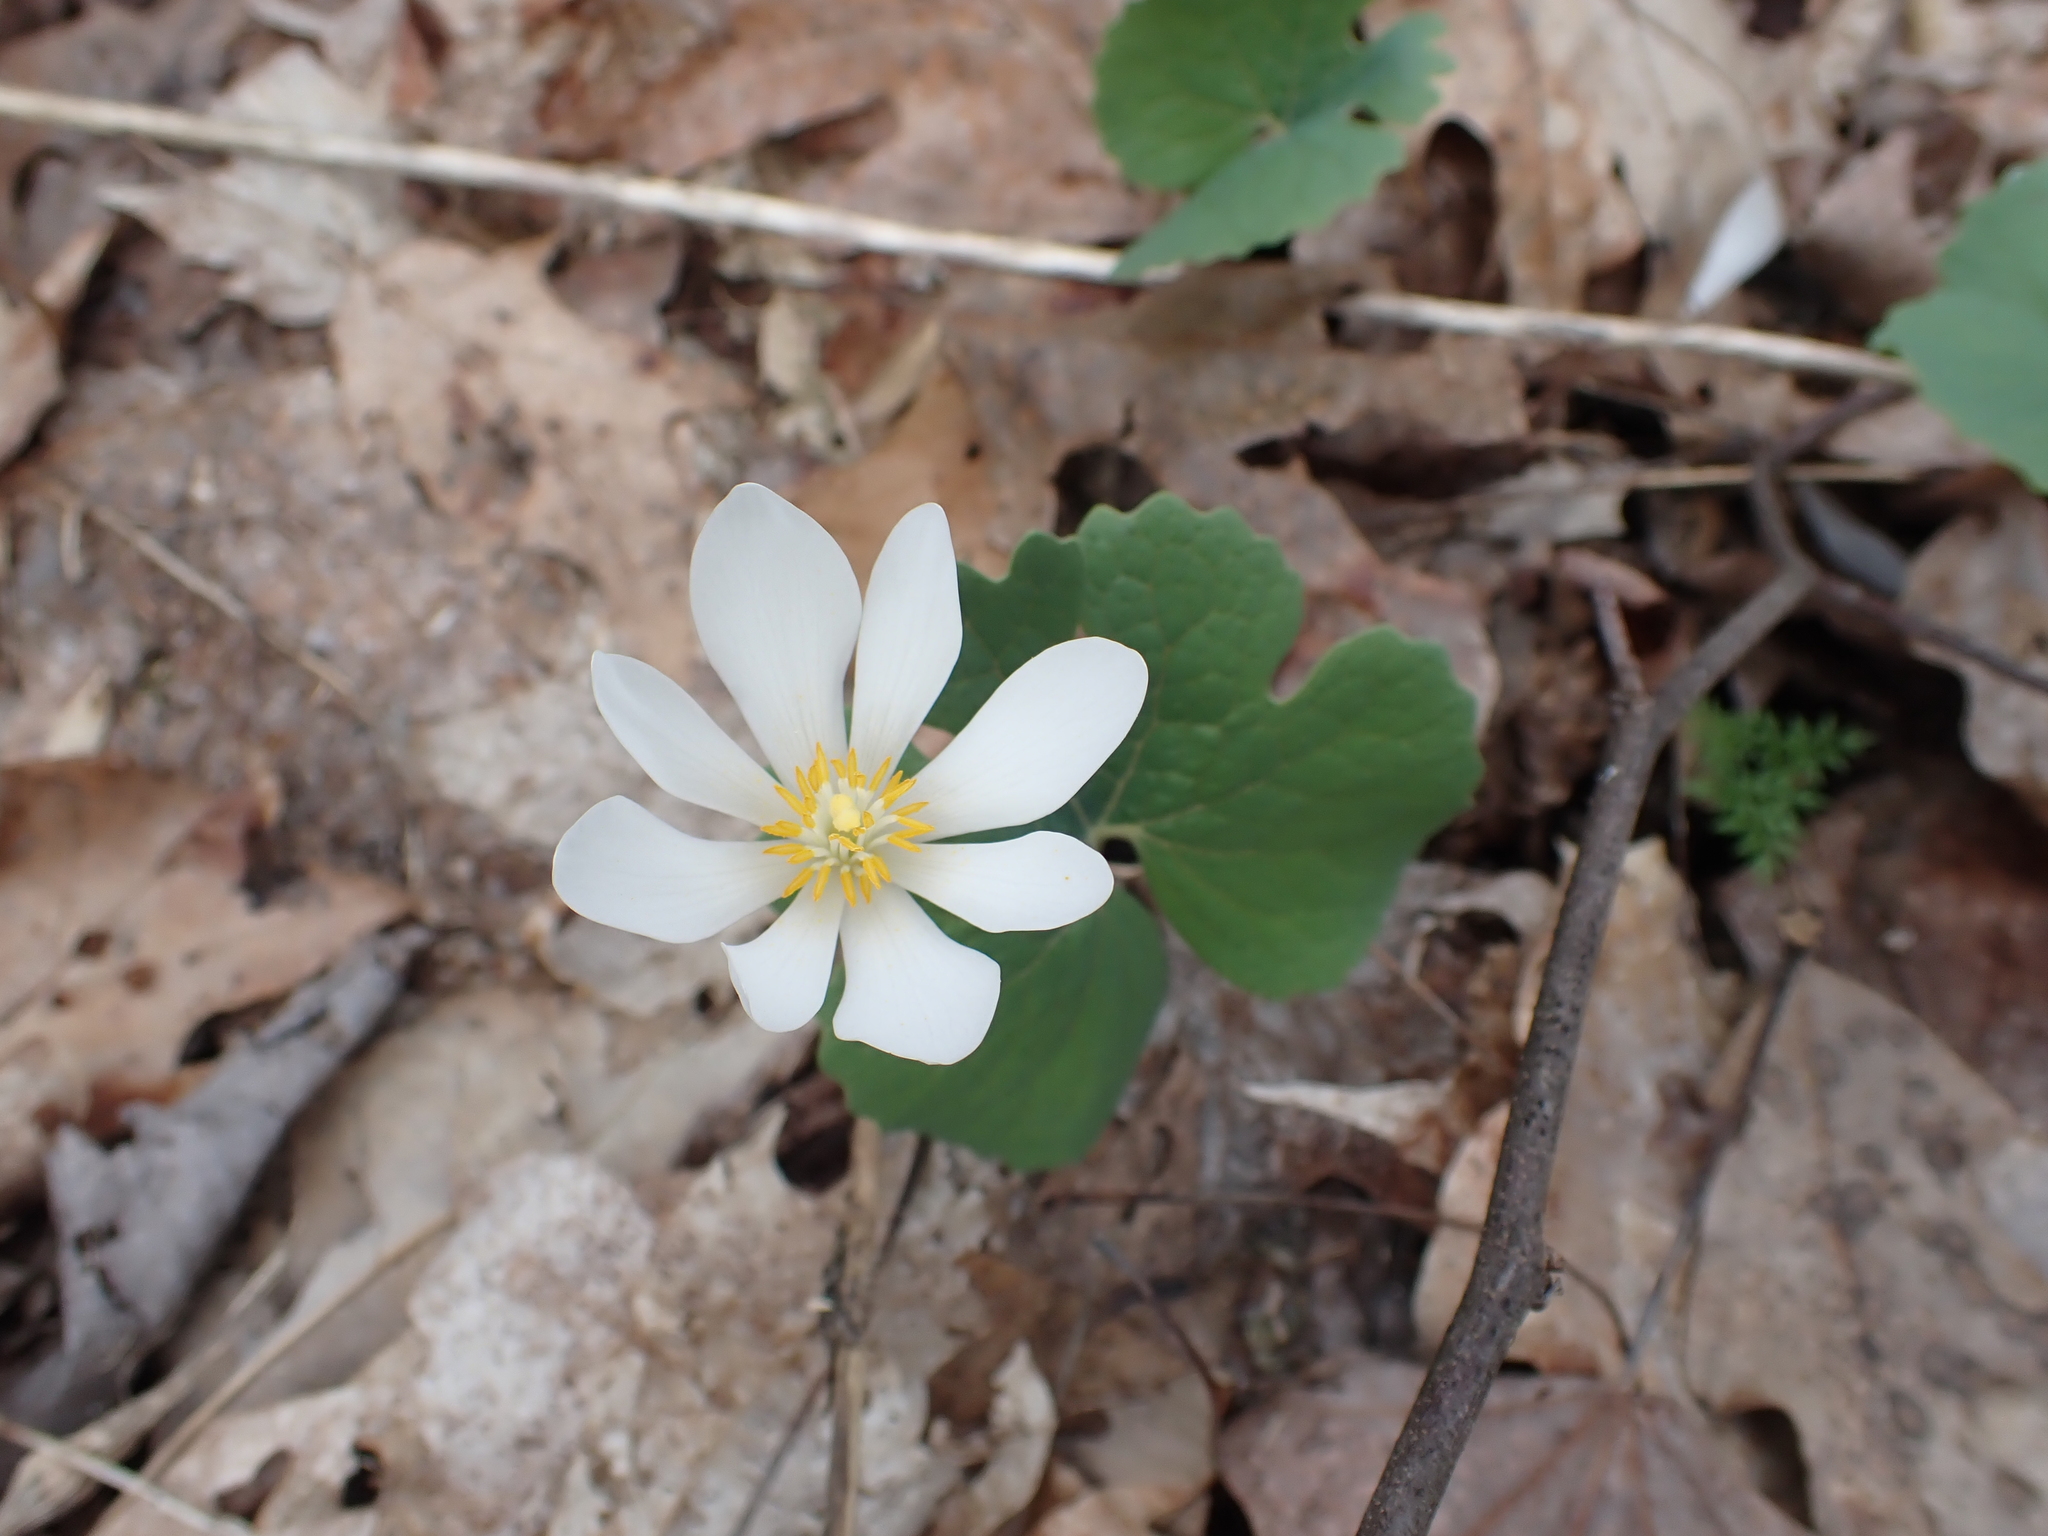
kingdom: Plantae
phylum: Tracheophyta
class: Magnoliopsida
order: Ranunculales
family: Papaveraceae
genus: Sanguinaria
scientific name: Sanguinaria canadensis
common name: Bloodroot
